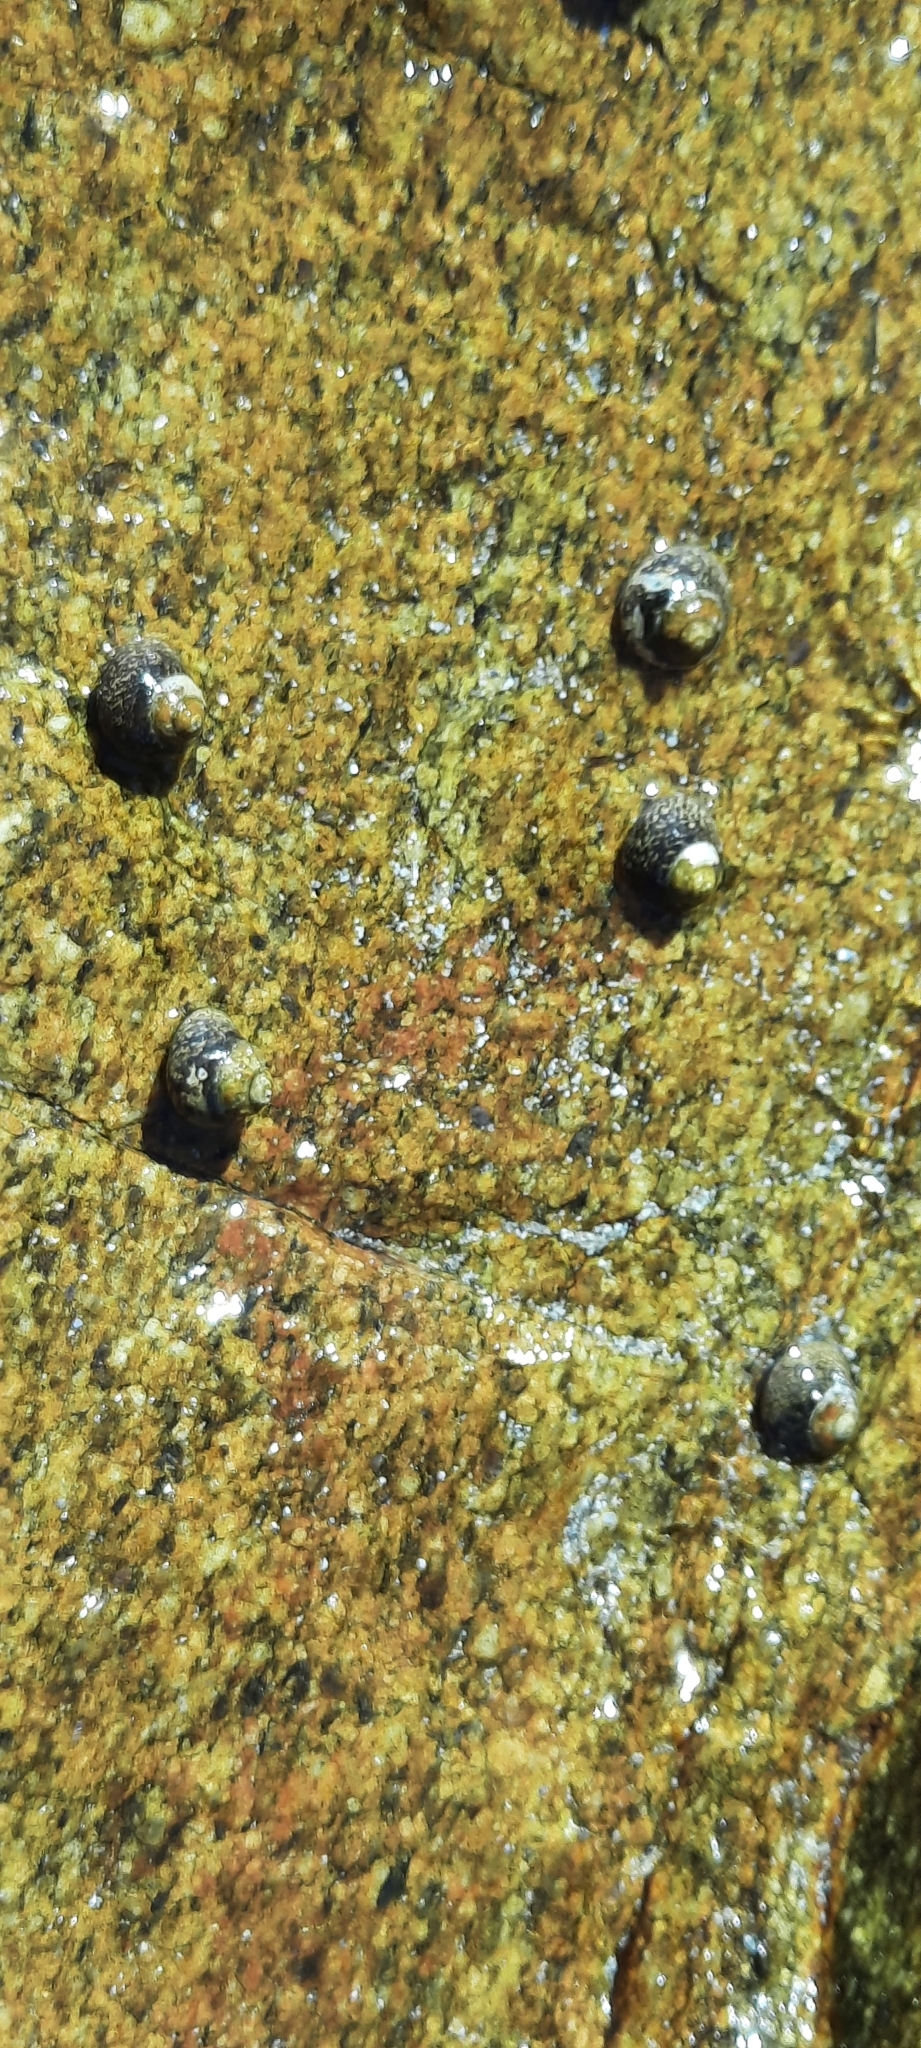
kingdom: Animalia
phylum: Mollusca
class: Gastropoda
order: Trochida
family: Trochidae
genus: Phorcus
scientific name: Phorcus lineatus
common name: Toothed top shell
